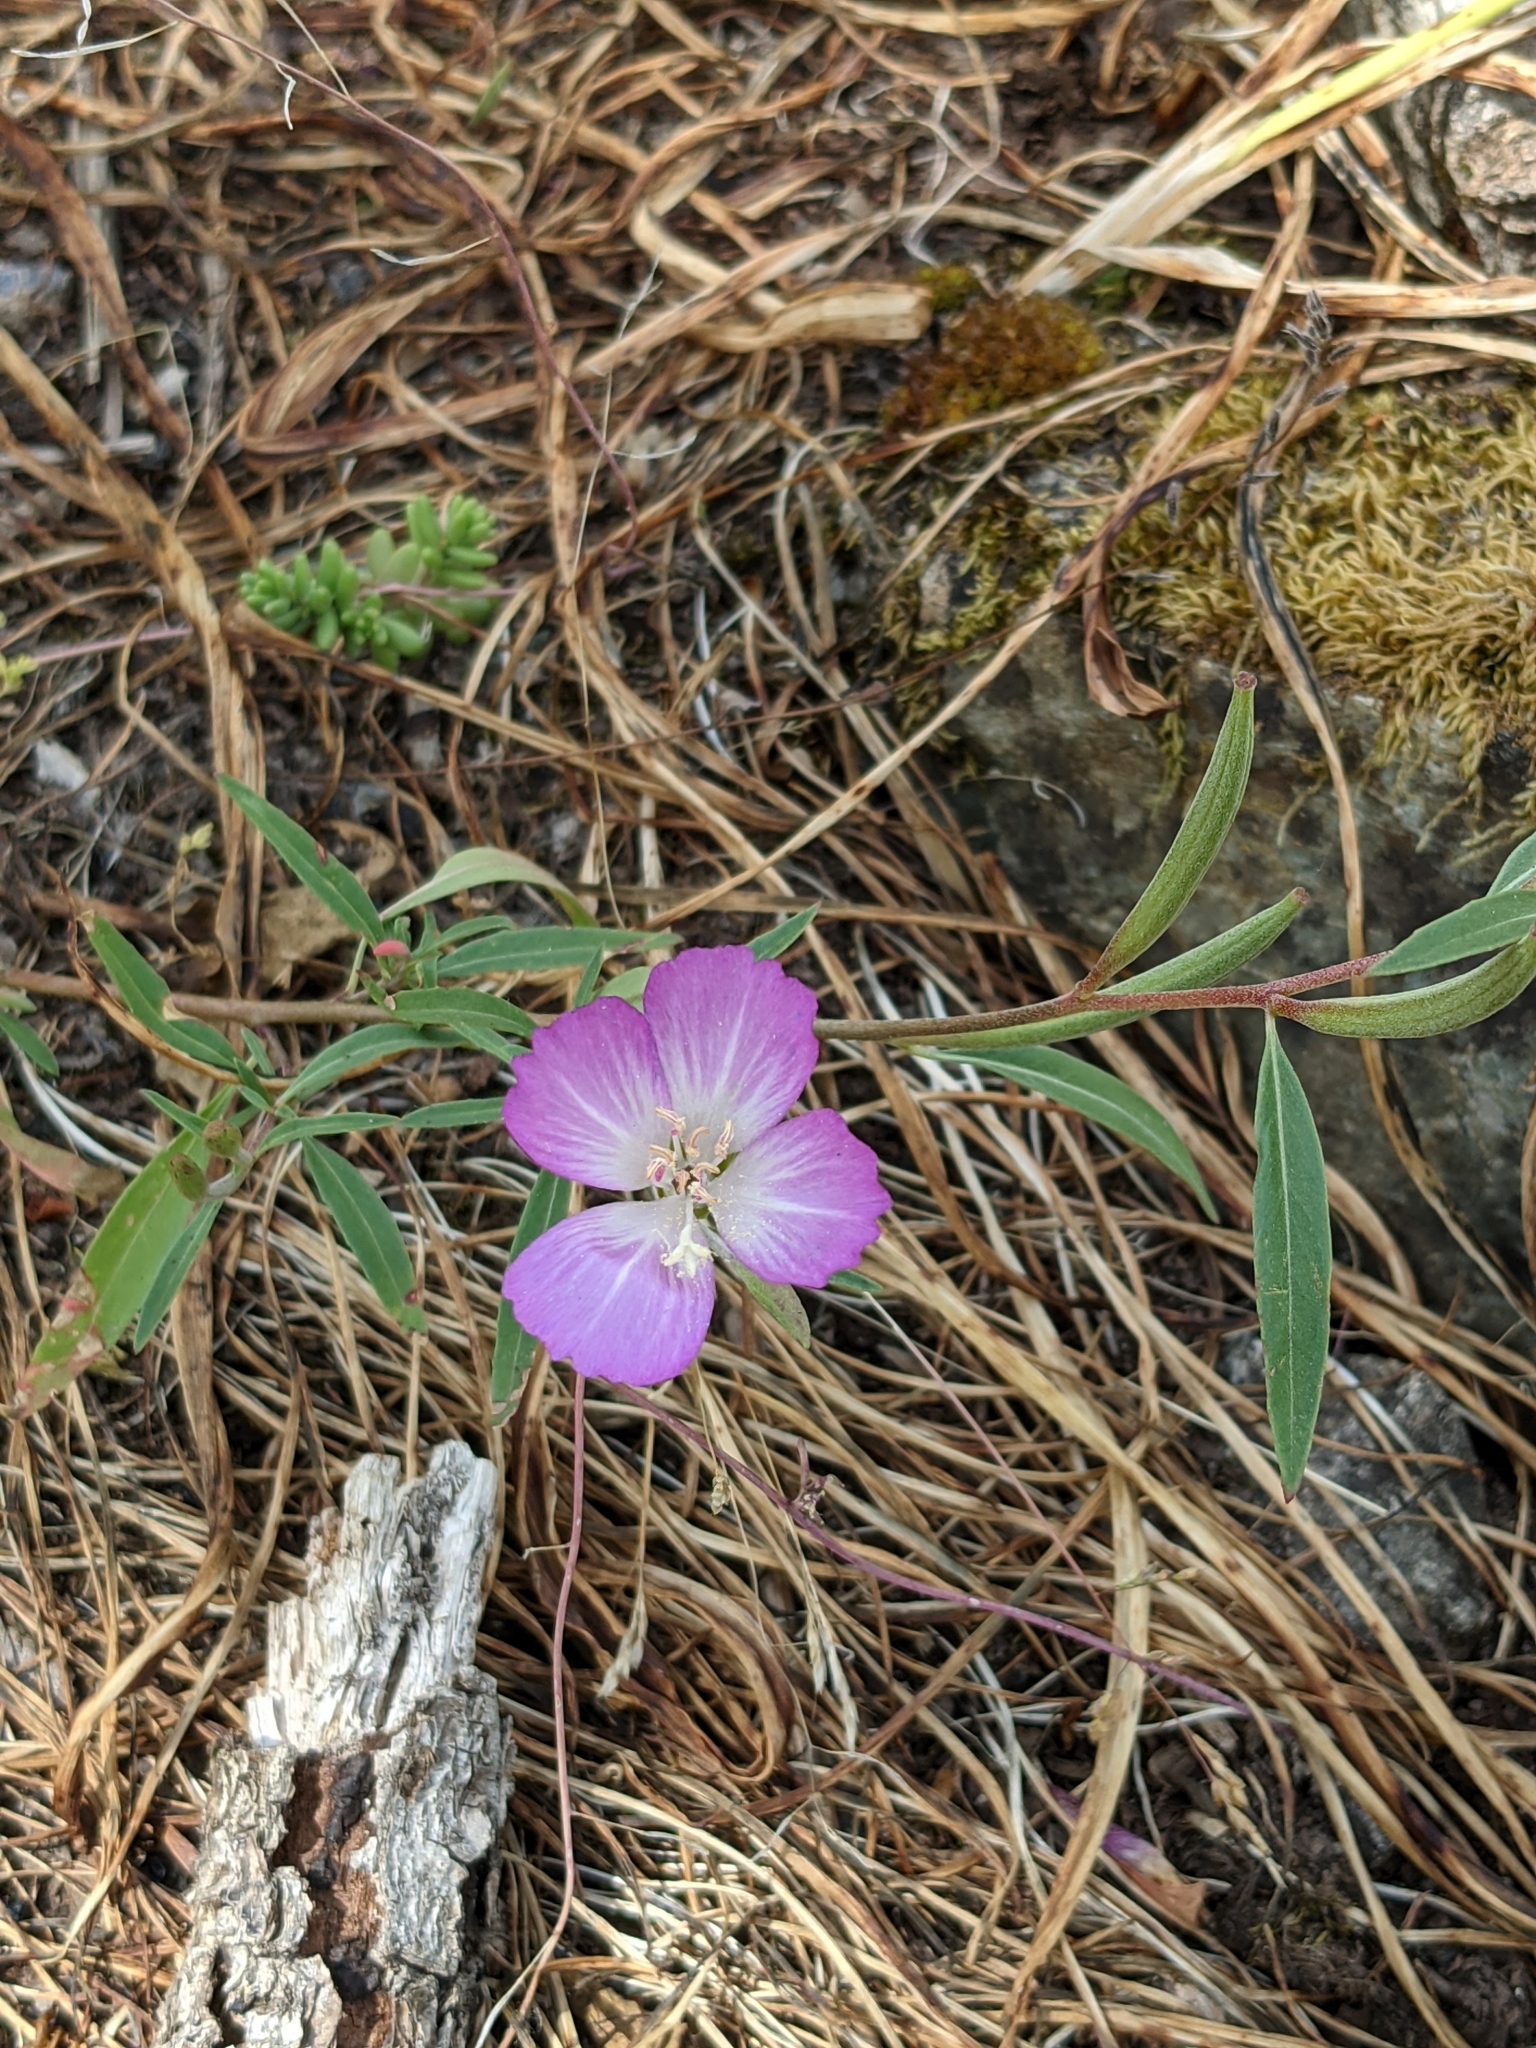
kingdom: Plantae
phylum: Tracheophyta
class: Magnoliopsida
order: Myrtales
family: Onagraceae
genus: Clarkia
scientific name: Clarkia amoena
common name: Godetia
